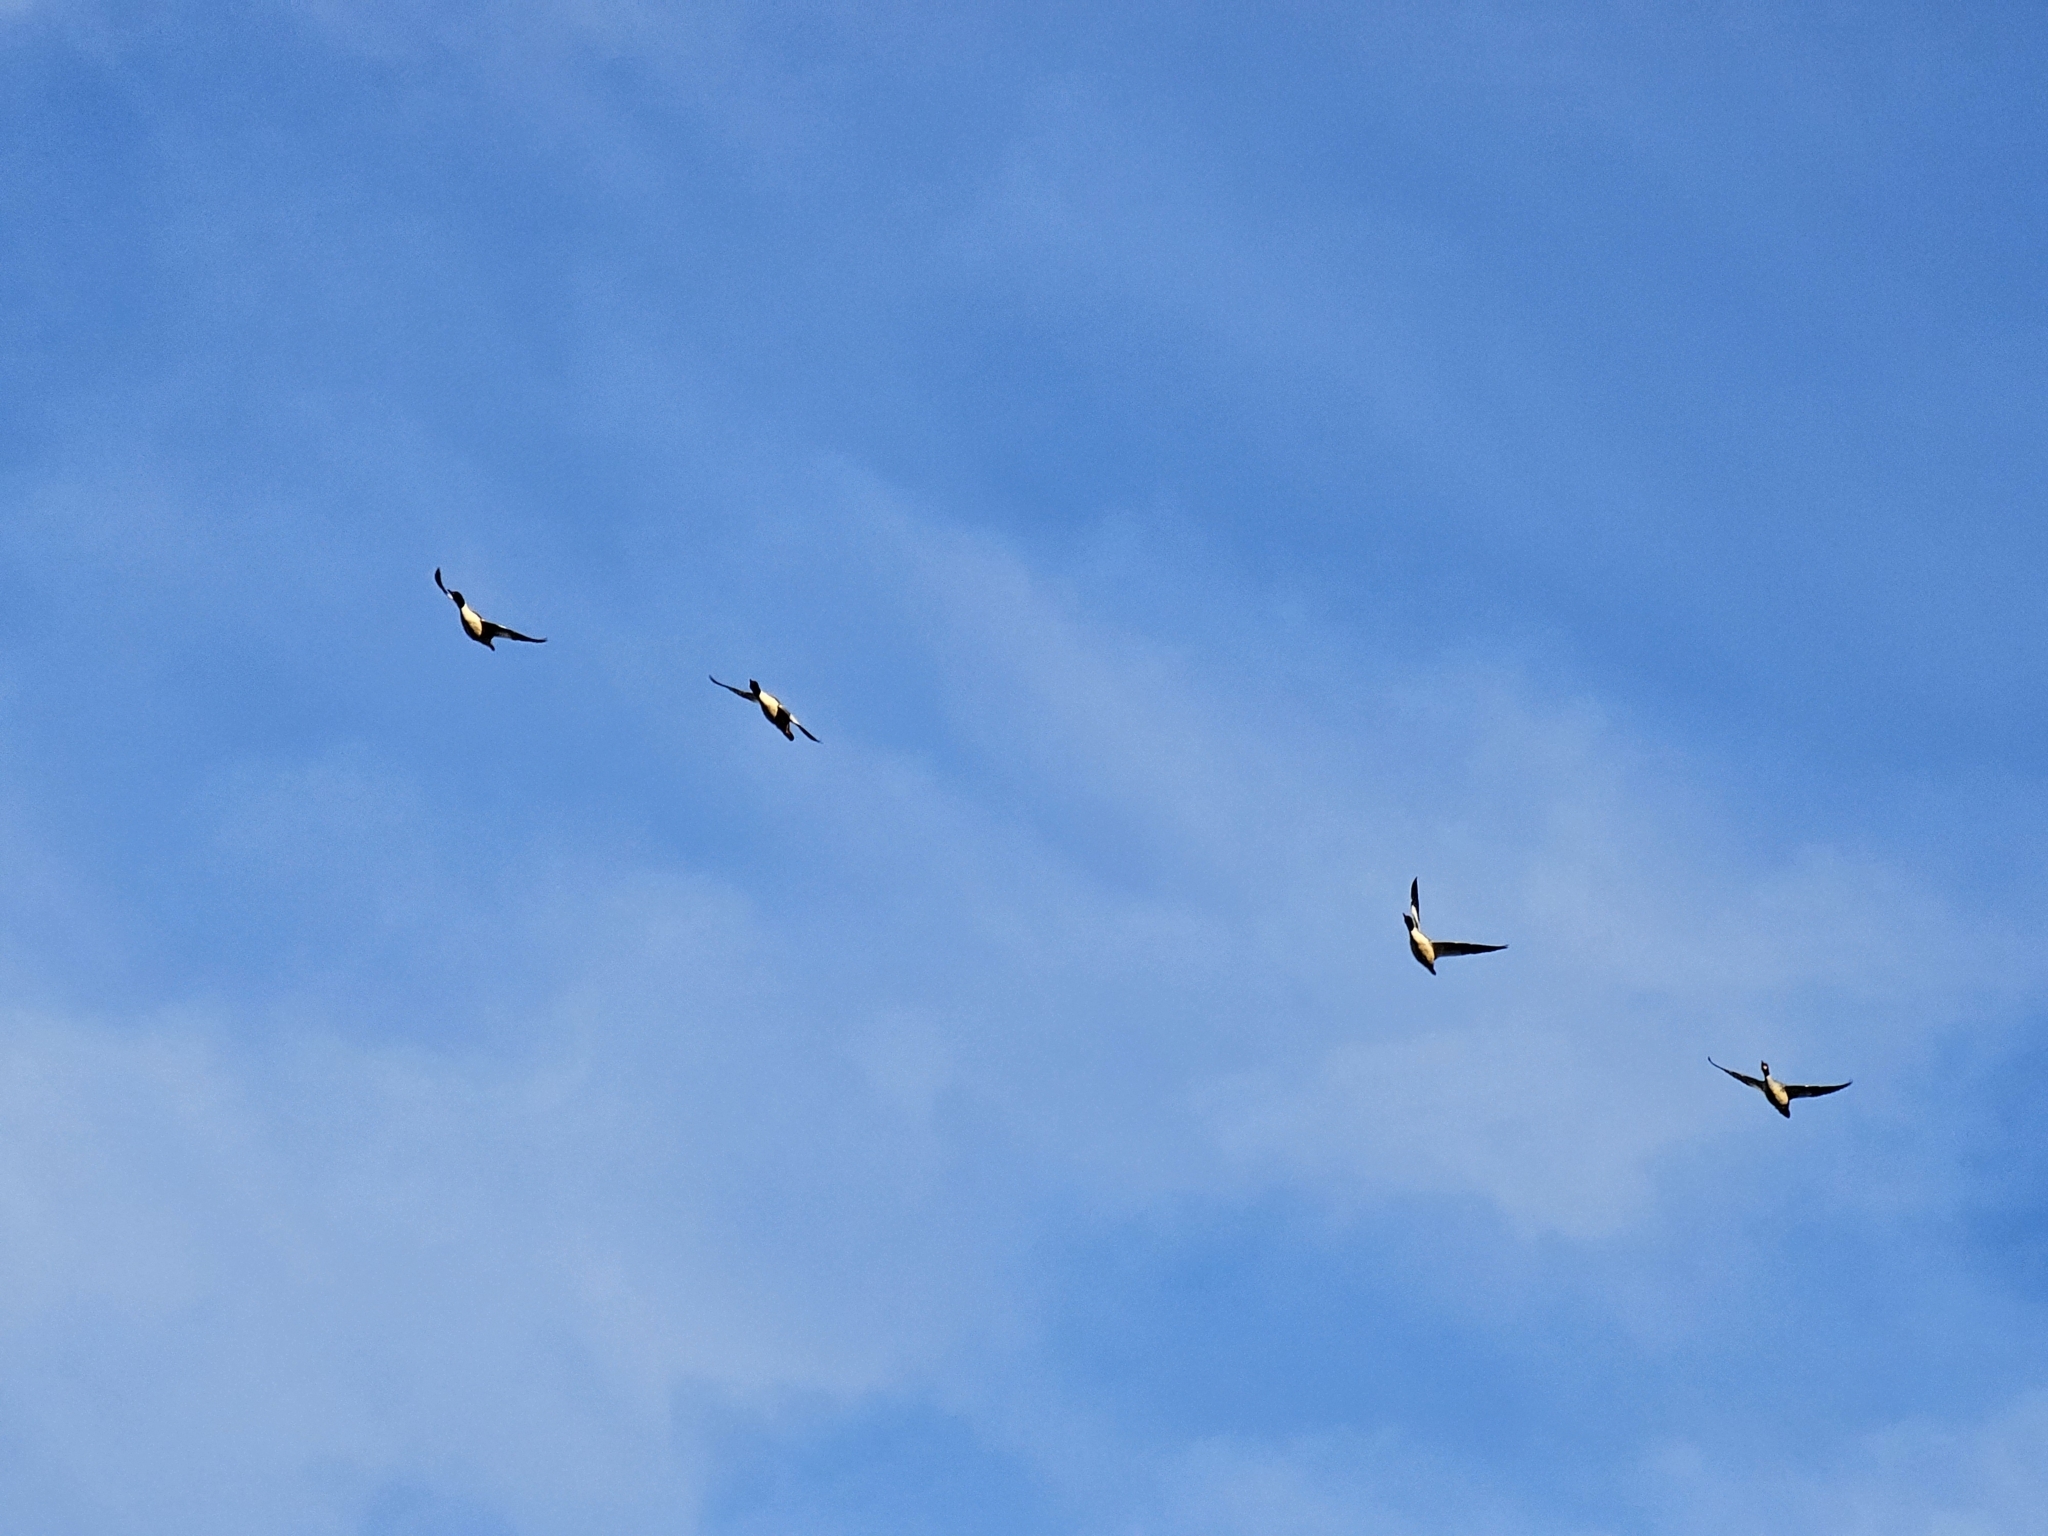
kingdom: Animalia
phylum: Chordata
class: Aves
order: Anseriformes
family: Anatidae
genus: Mergus
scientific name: Mergus merganser
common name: Common merganser
